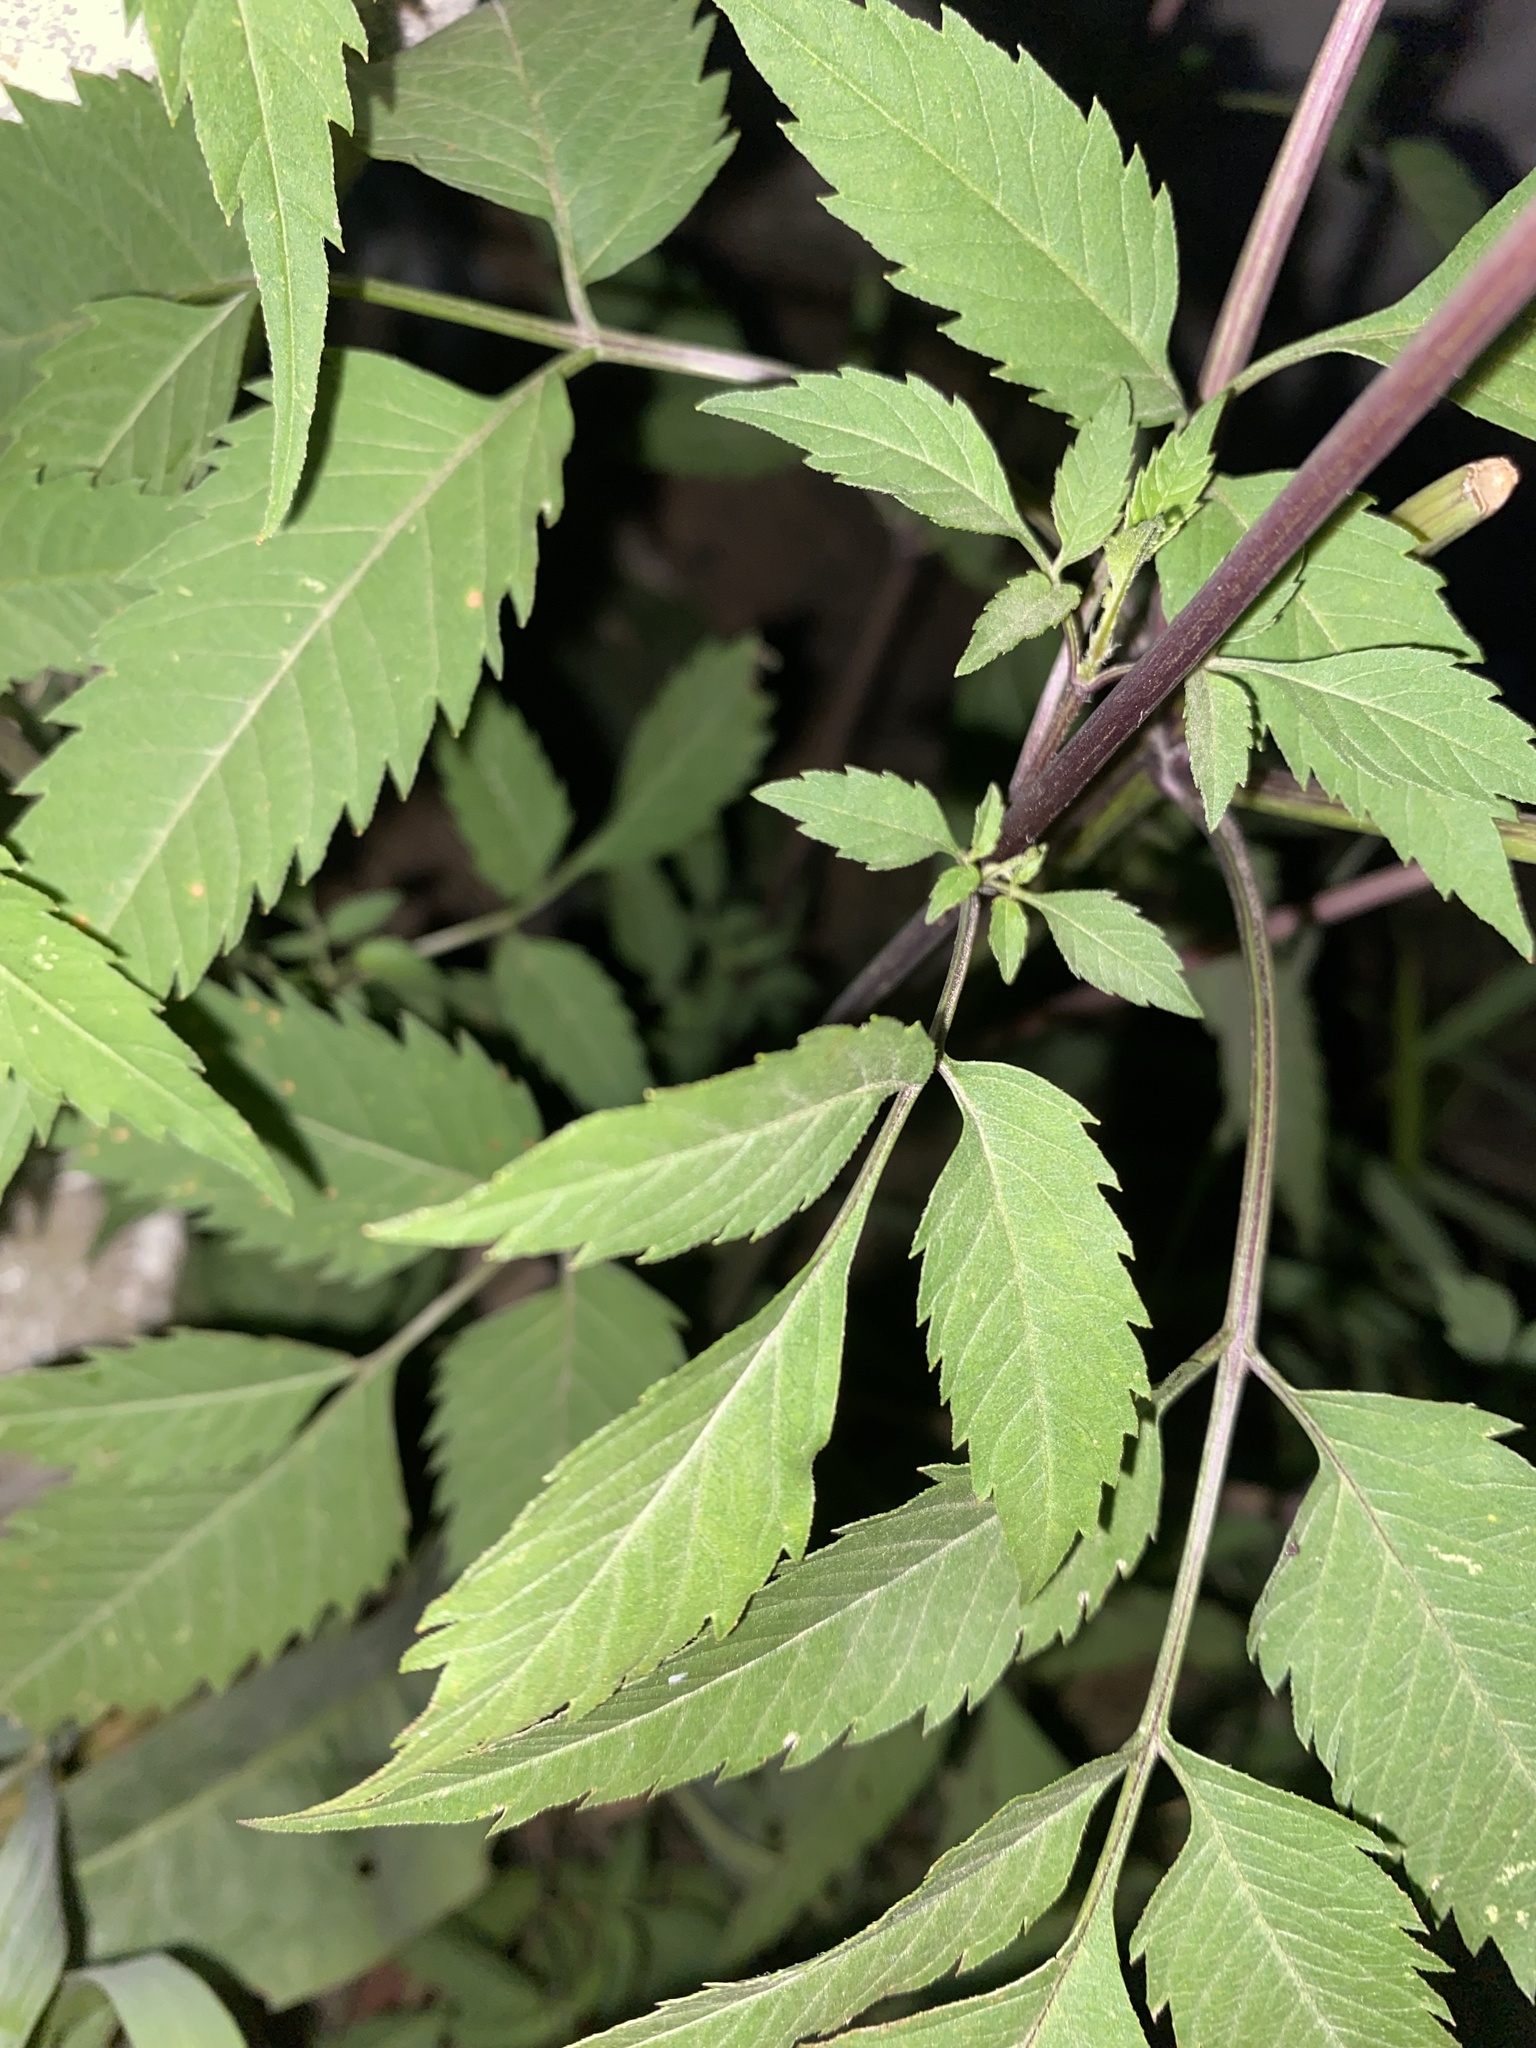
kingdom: Plantae
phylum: Tracheophyta
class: Magnoliopsida
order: Asterales
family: Asteraceae
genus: Bidens
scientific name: Bidens frondosa
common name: Beggarticks
